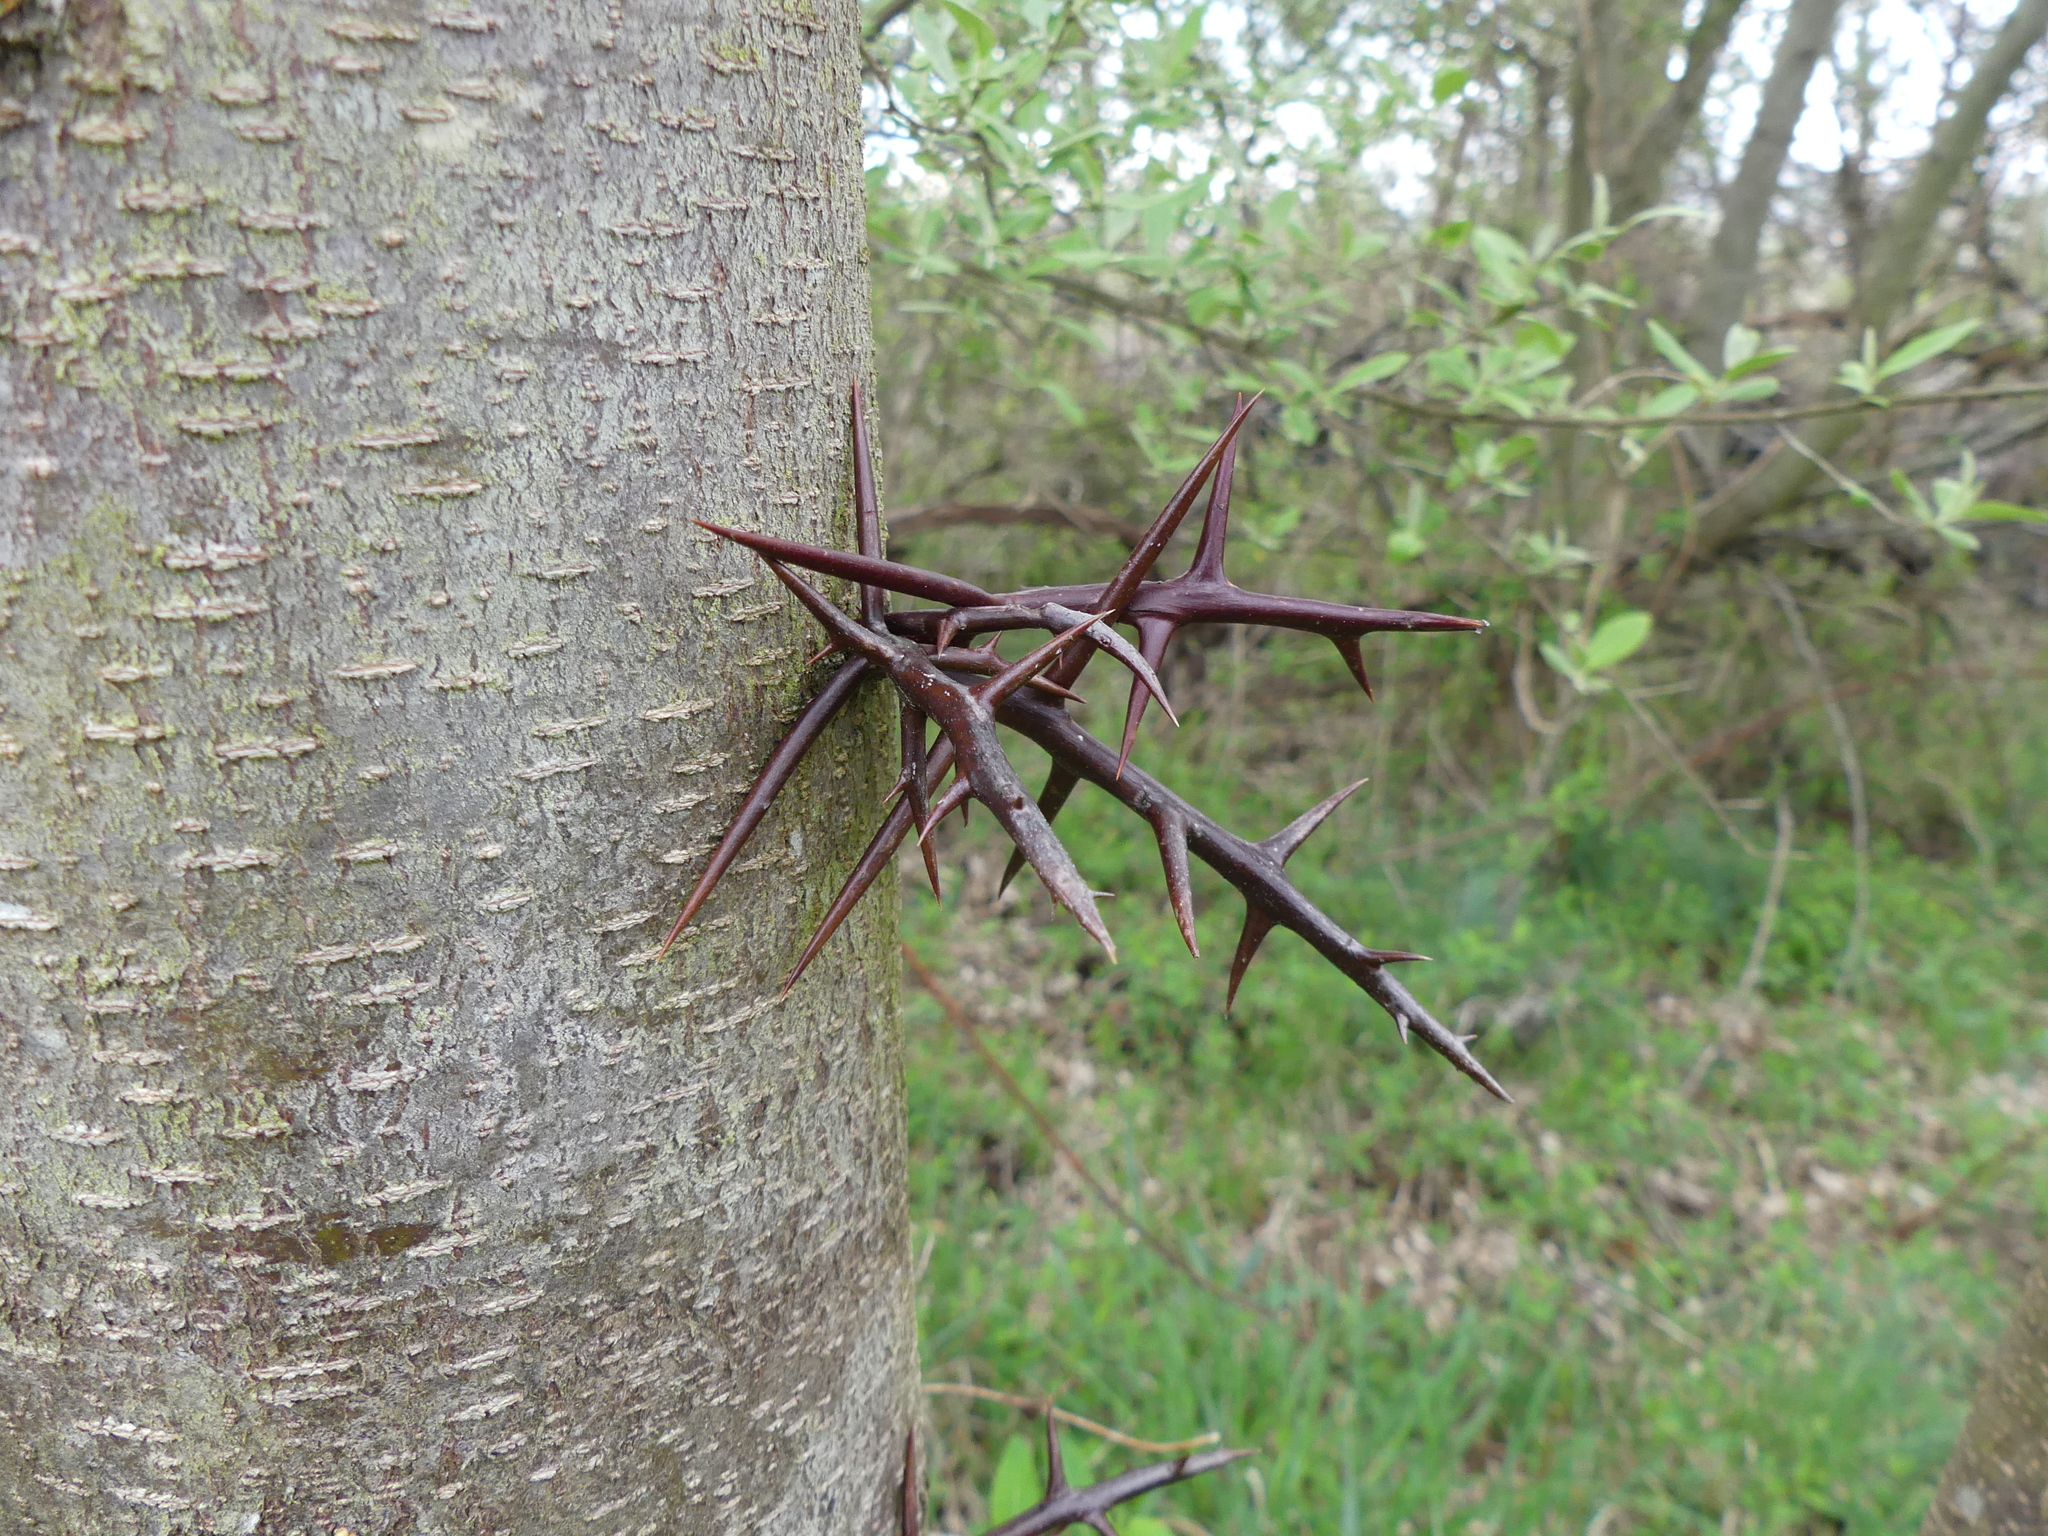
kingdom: Plantae
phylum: Tracheophyta
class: Magnoliopsida
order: Fabales
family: Fabaceae
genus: Gleditsia
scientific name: Gleditsia triacanthos
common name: Common honeylocust
